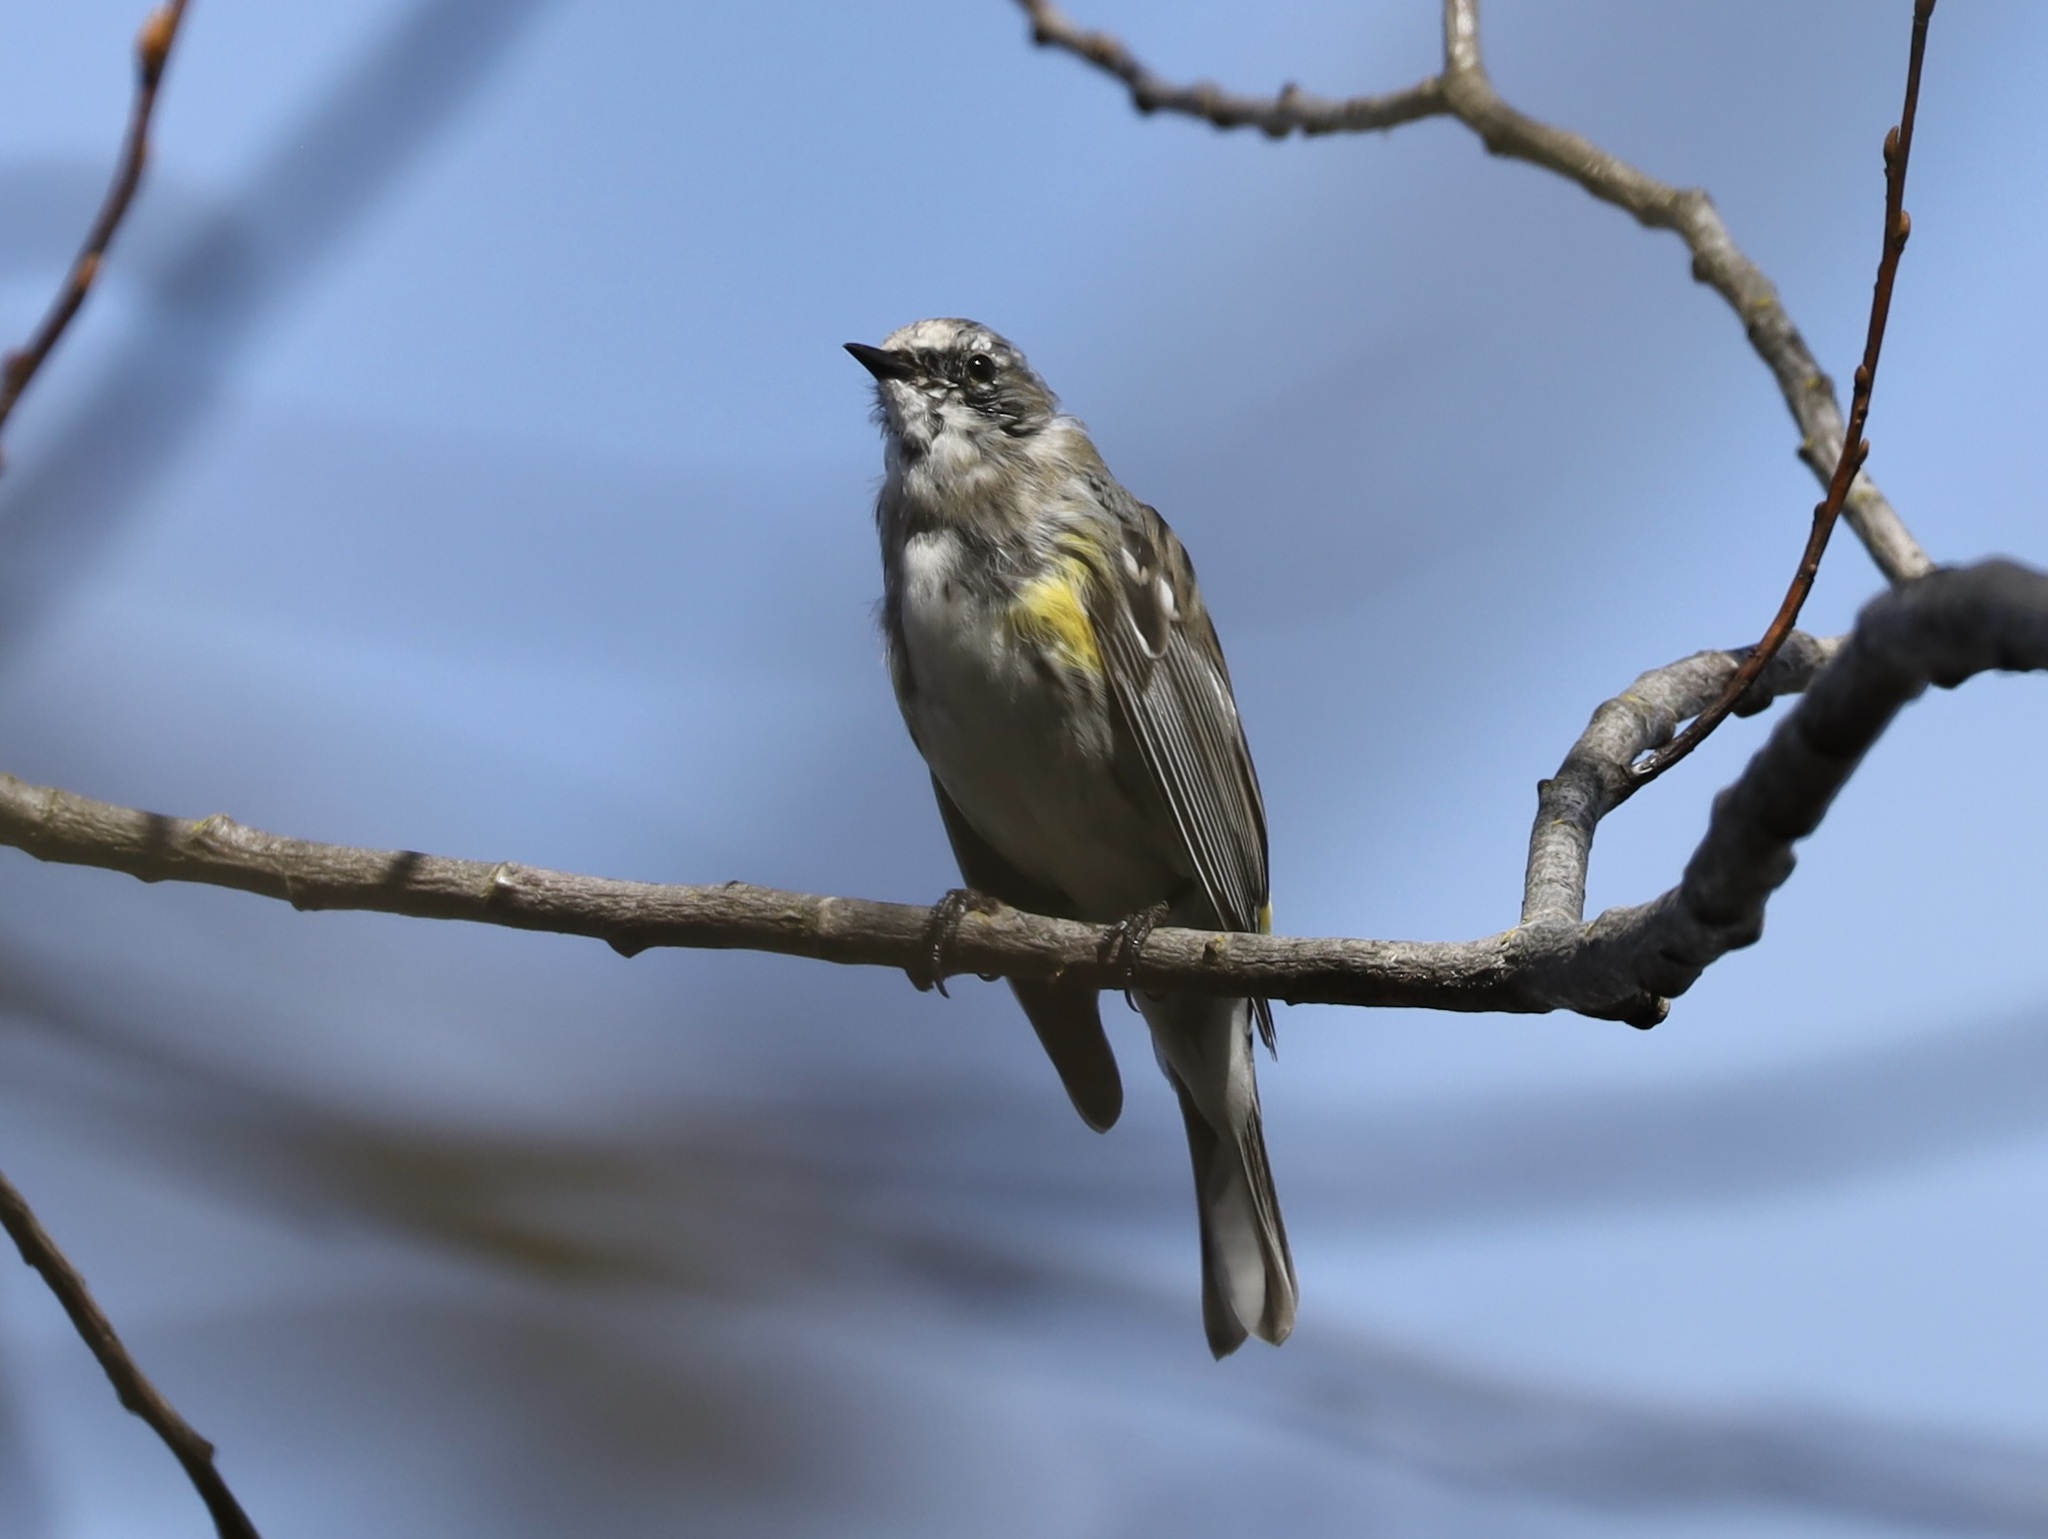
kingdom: Animalia
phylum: Chordata
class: Aves
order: Passeriformes
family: Parulidae
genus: Setophaga
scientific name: Setophaga coronata
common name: Myrtle warbler
